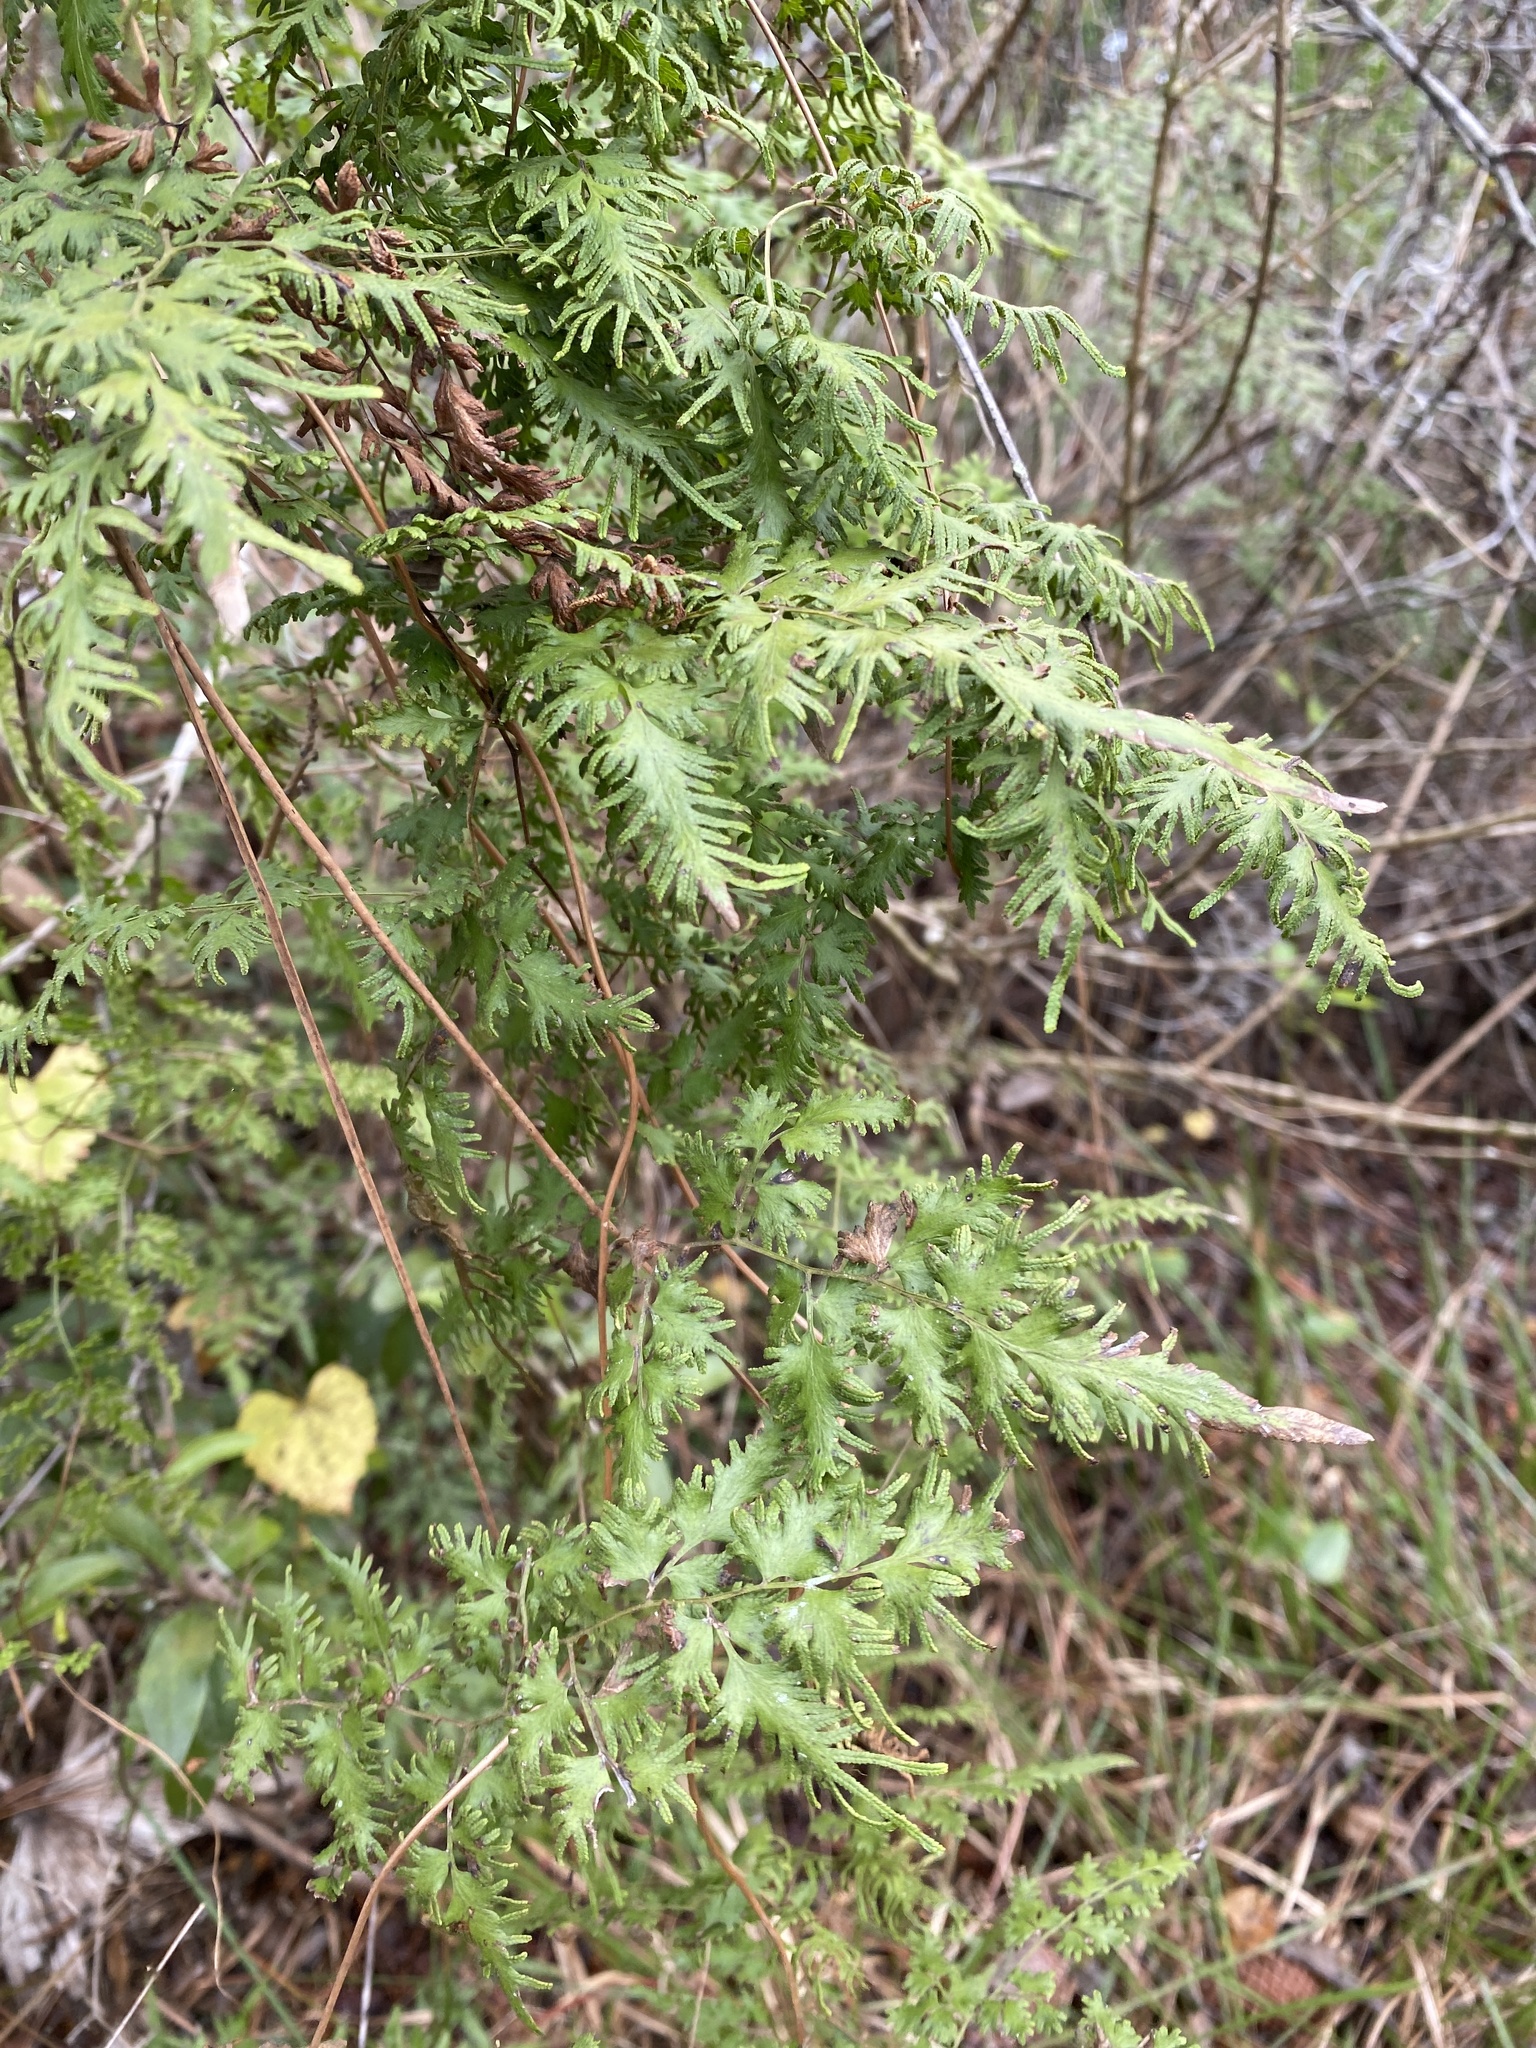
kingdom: Plantae
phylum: Tracheophyta
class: Polypodiopsida
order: Schizaeales
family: Lygodiaceae
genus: Lygodium
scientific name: Lygodium japonicum
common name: Japanese climbing fern
